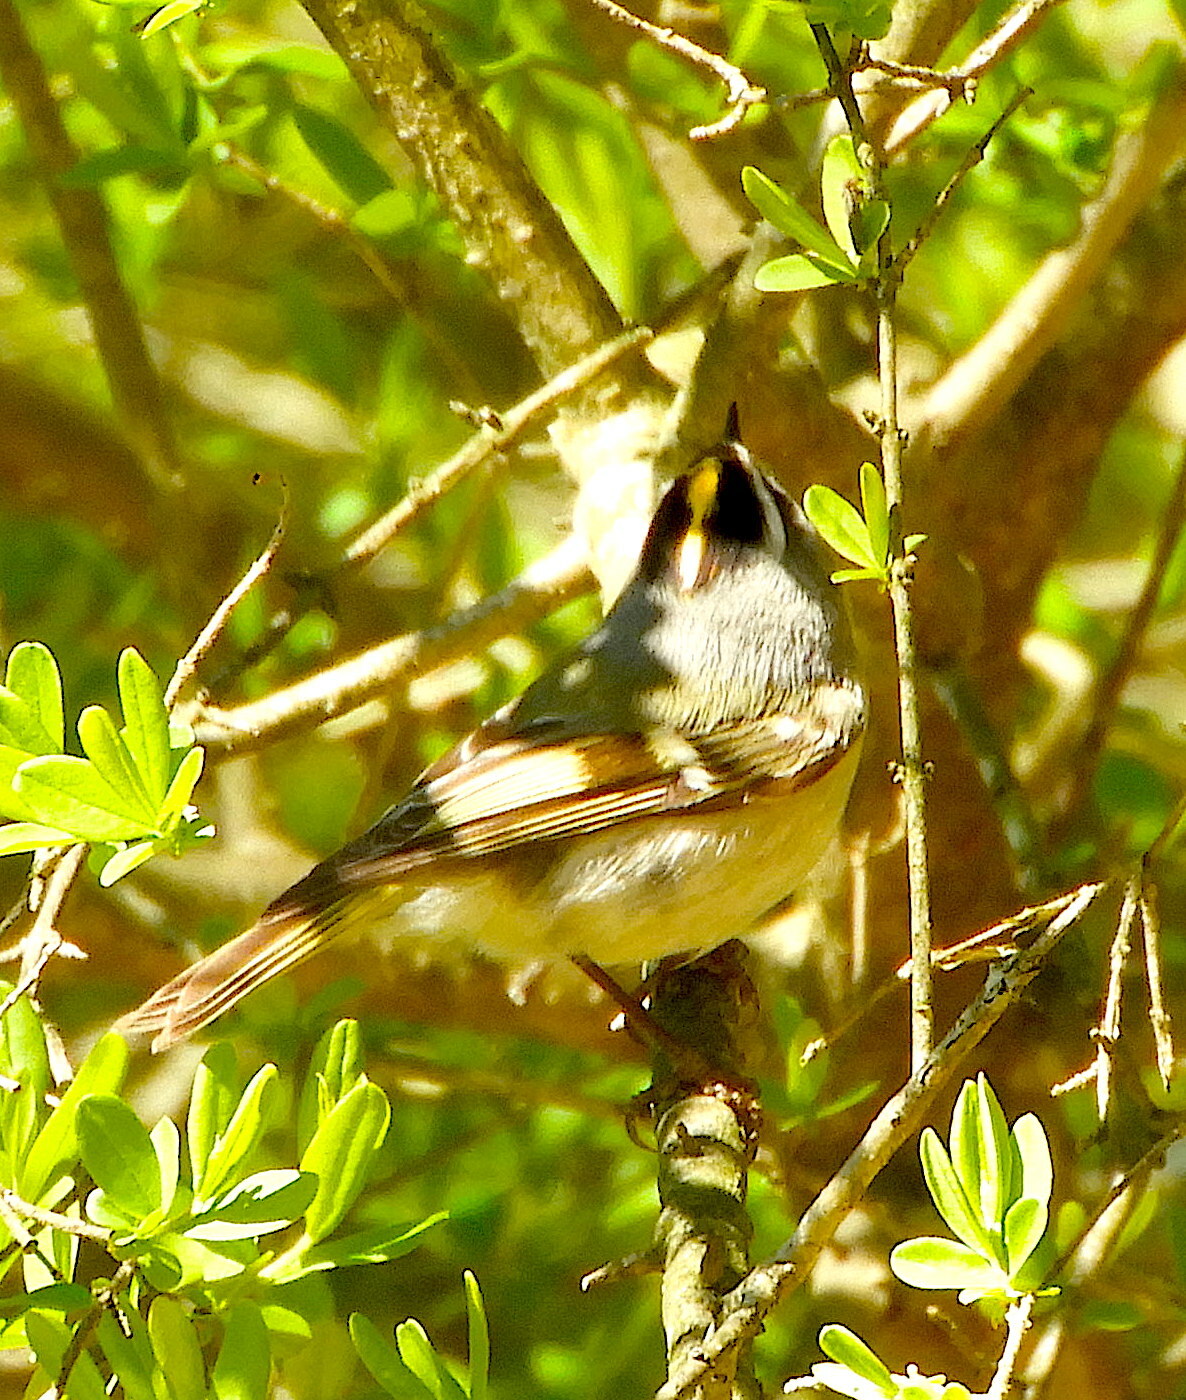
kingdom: Animalia
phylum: Chordata
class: Aves
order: Passeriformes
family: Regulidae
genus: Regulus
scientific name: Regulus satrapa
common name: Golden-crowned kinglet
